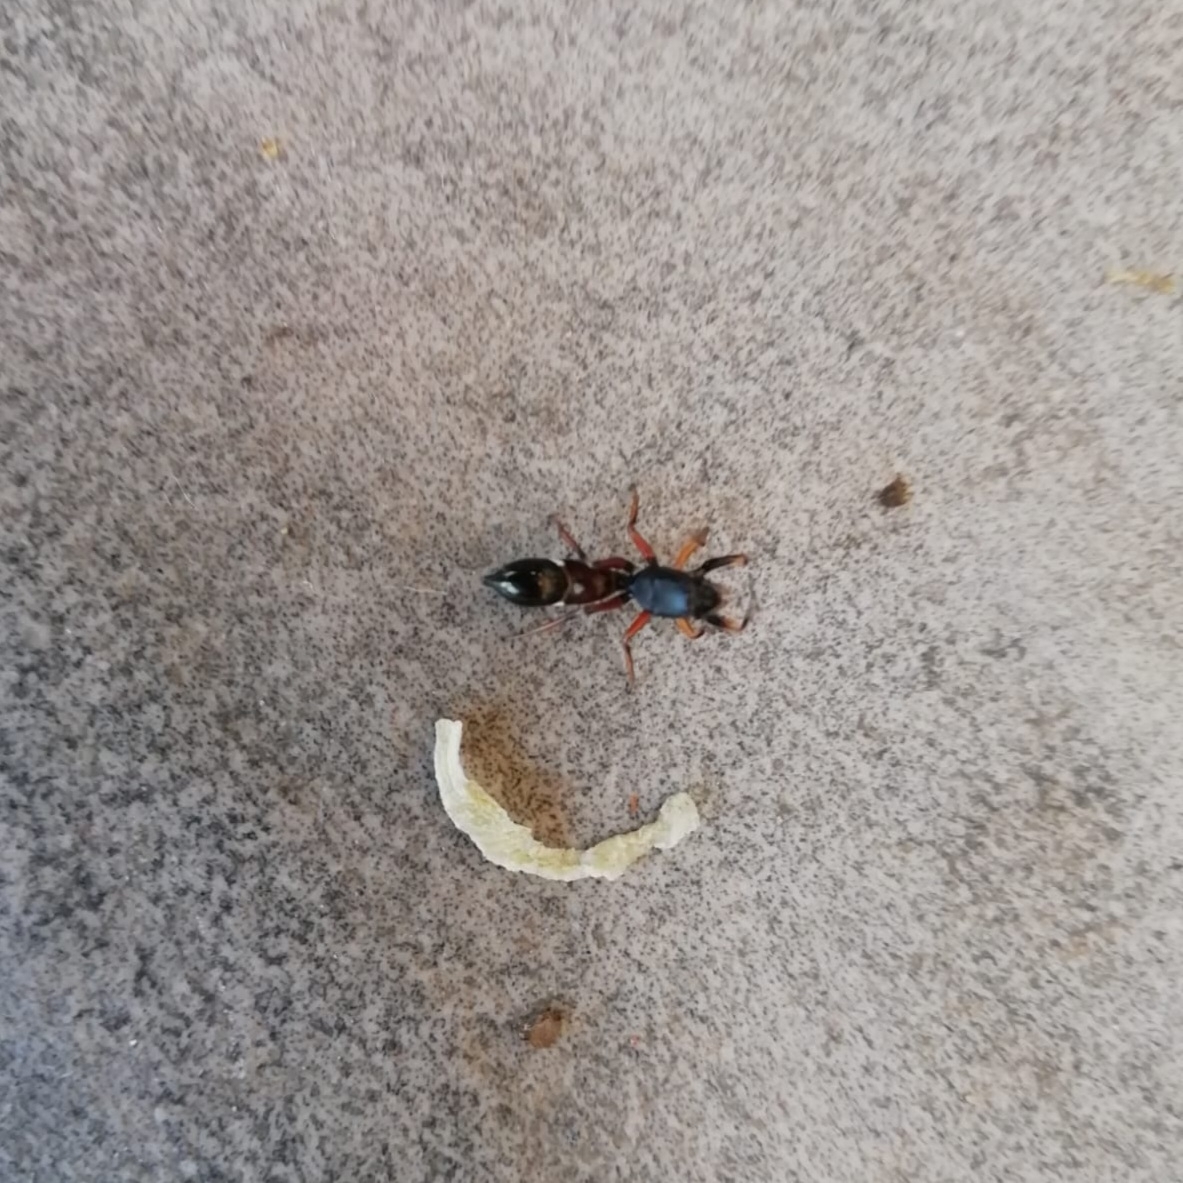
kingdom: Animalia
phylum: Arthropoda
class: Arachnida
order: Araneae
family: Salticidae
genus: Leptorchestes
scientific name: Leptorchestes
